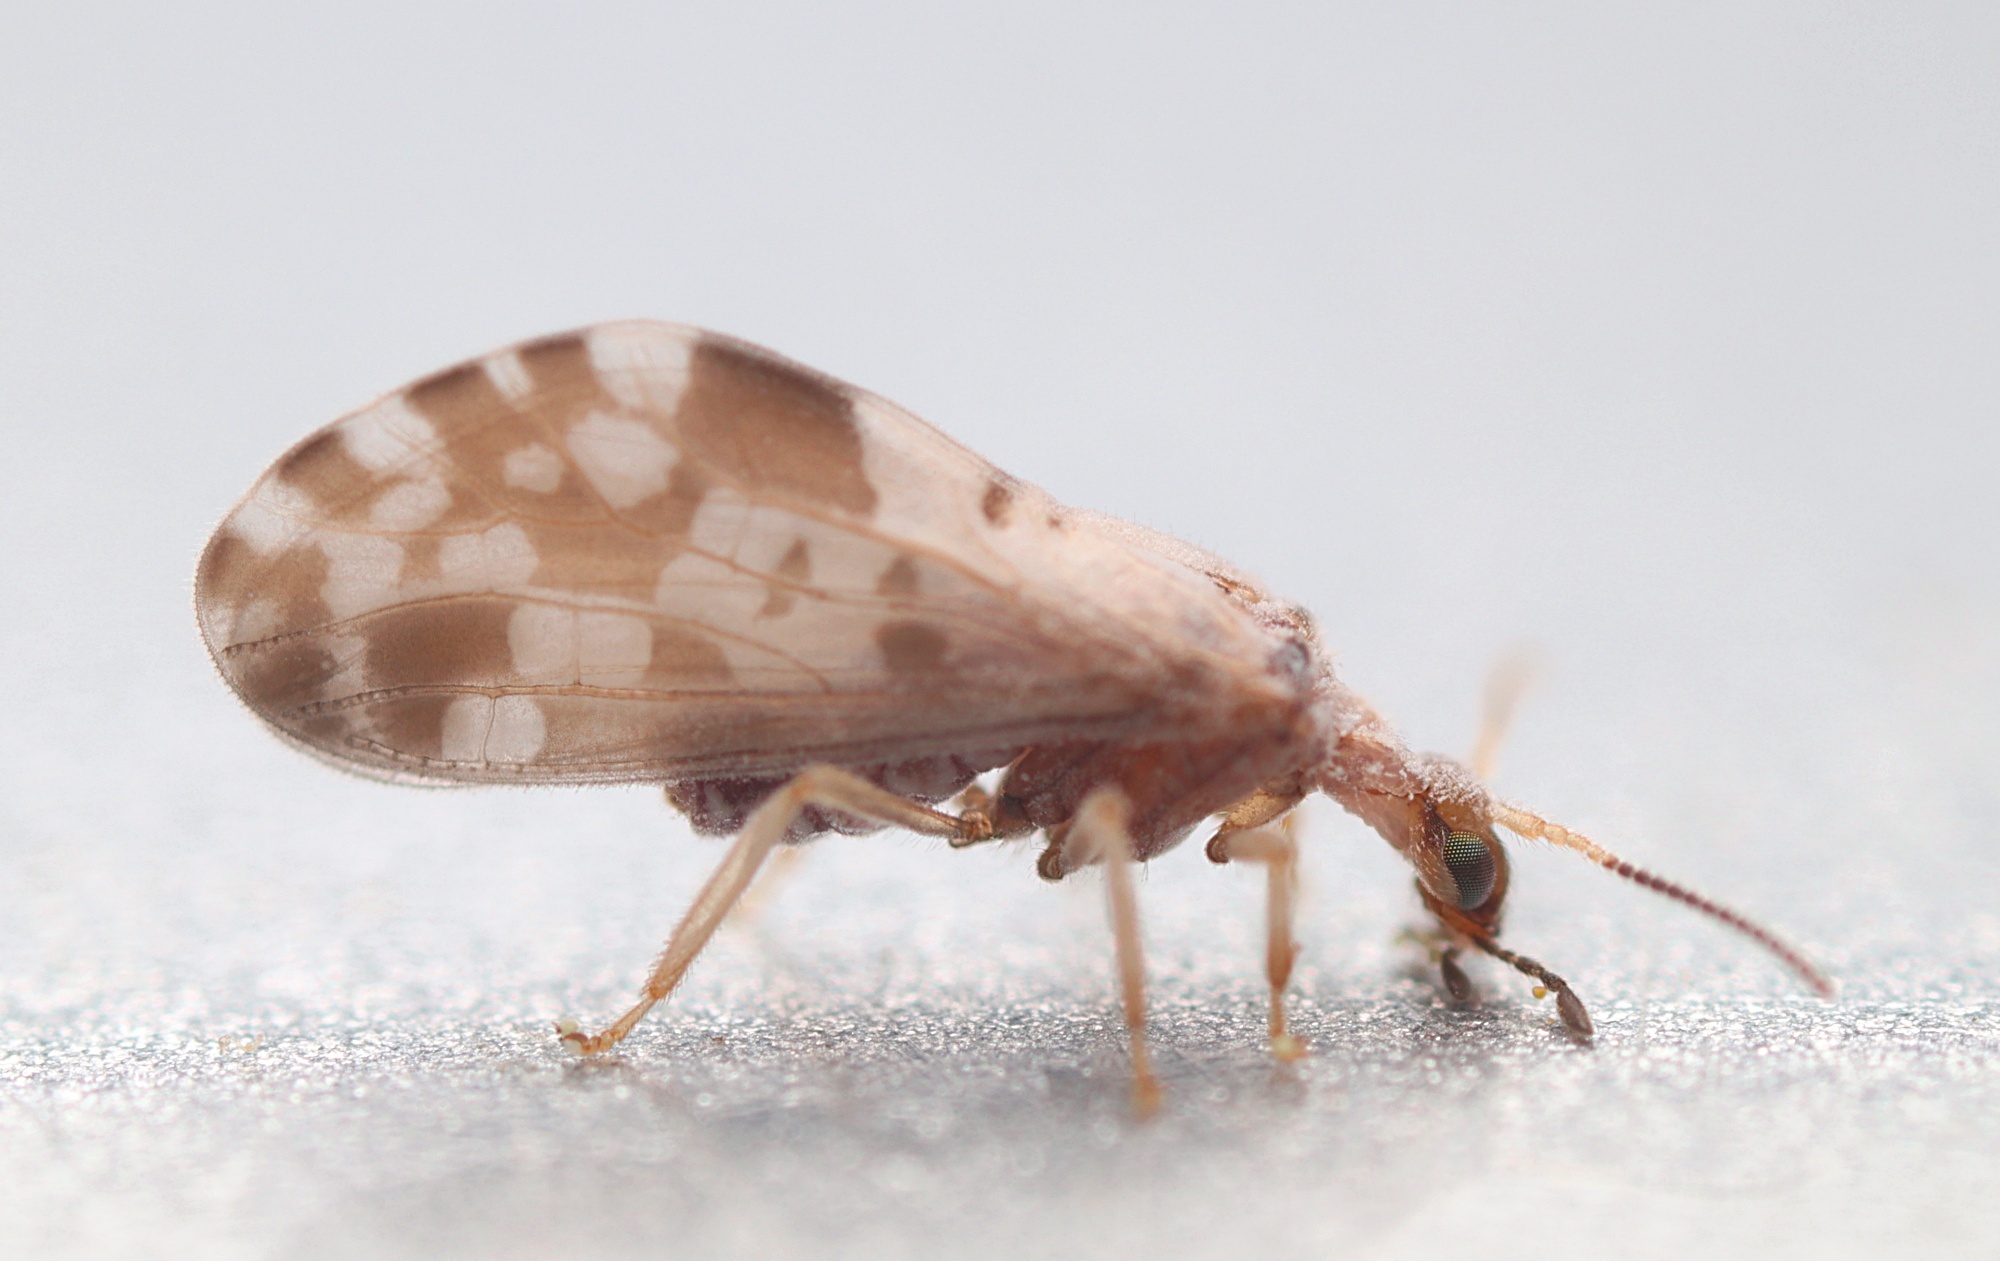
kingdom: Animalia
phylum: Arthropoda
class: Insecta
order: Neuroptera
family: Coniopterygidae
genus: Heteroconis
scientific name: Heteroconis ornata
